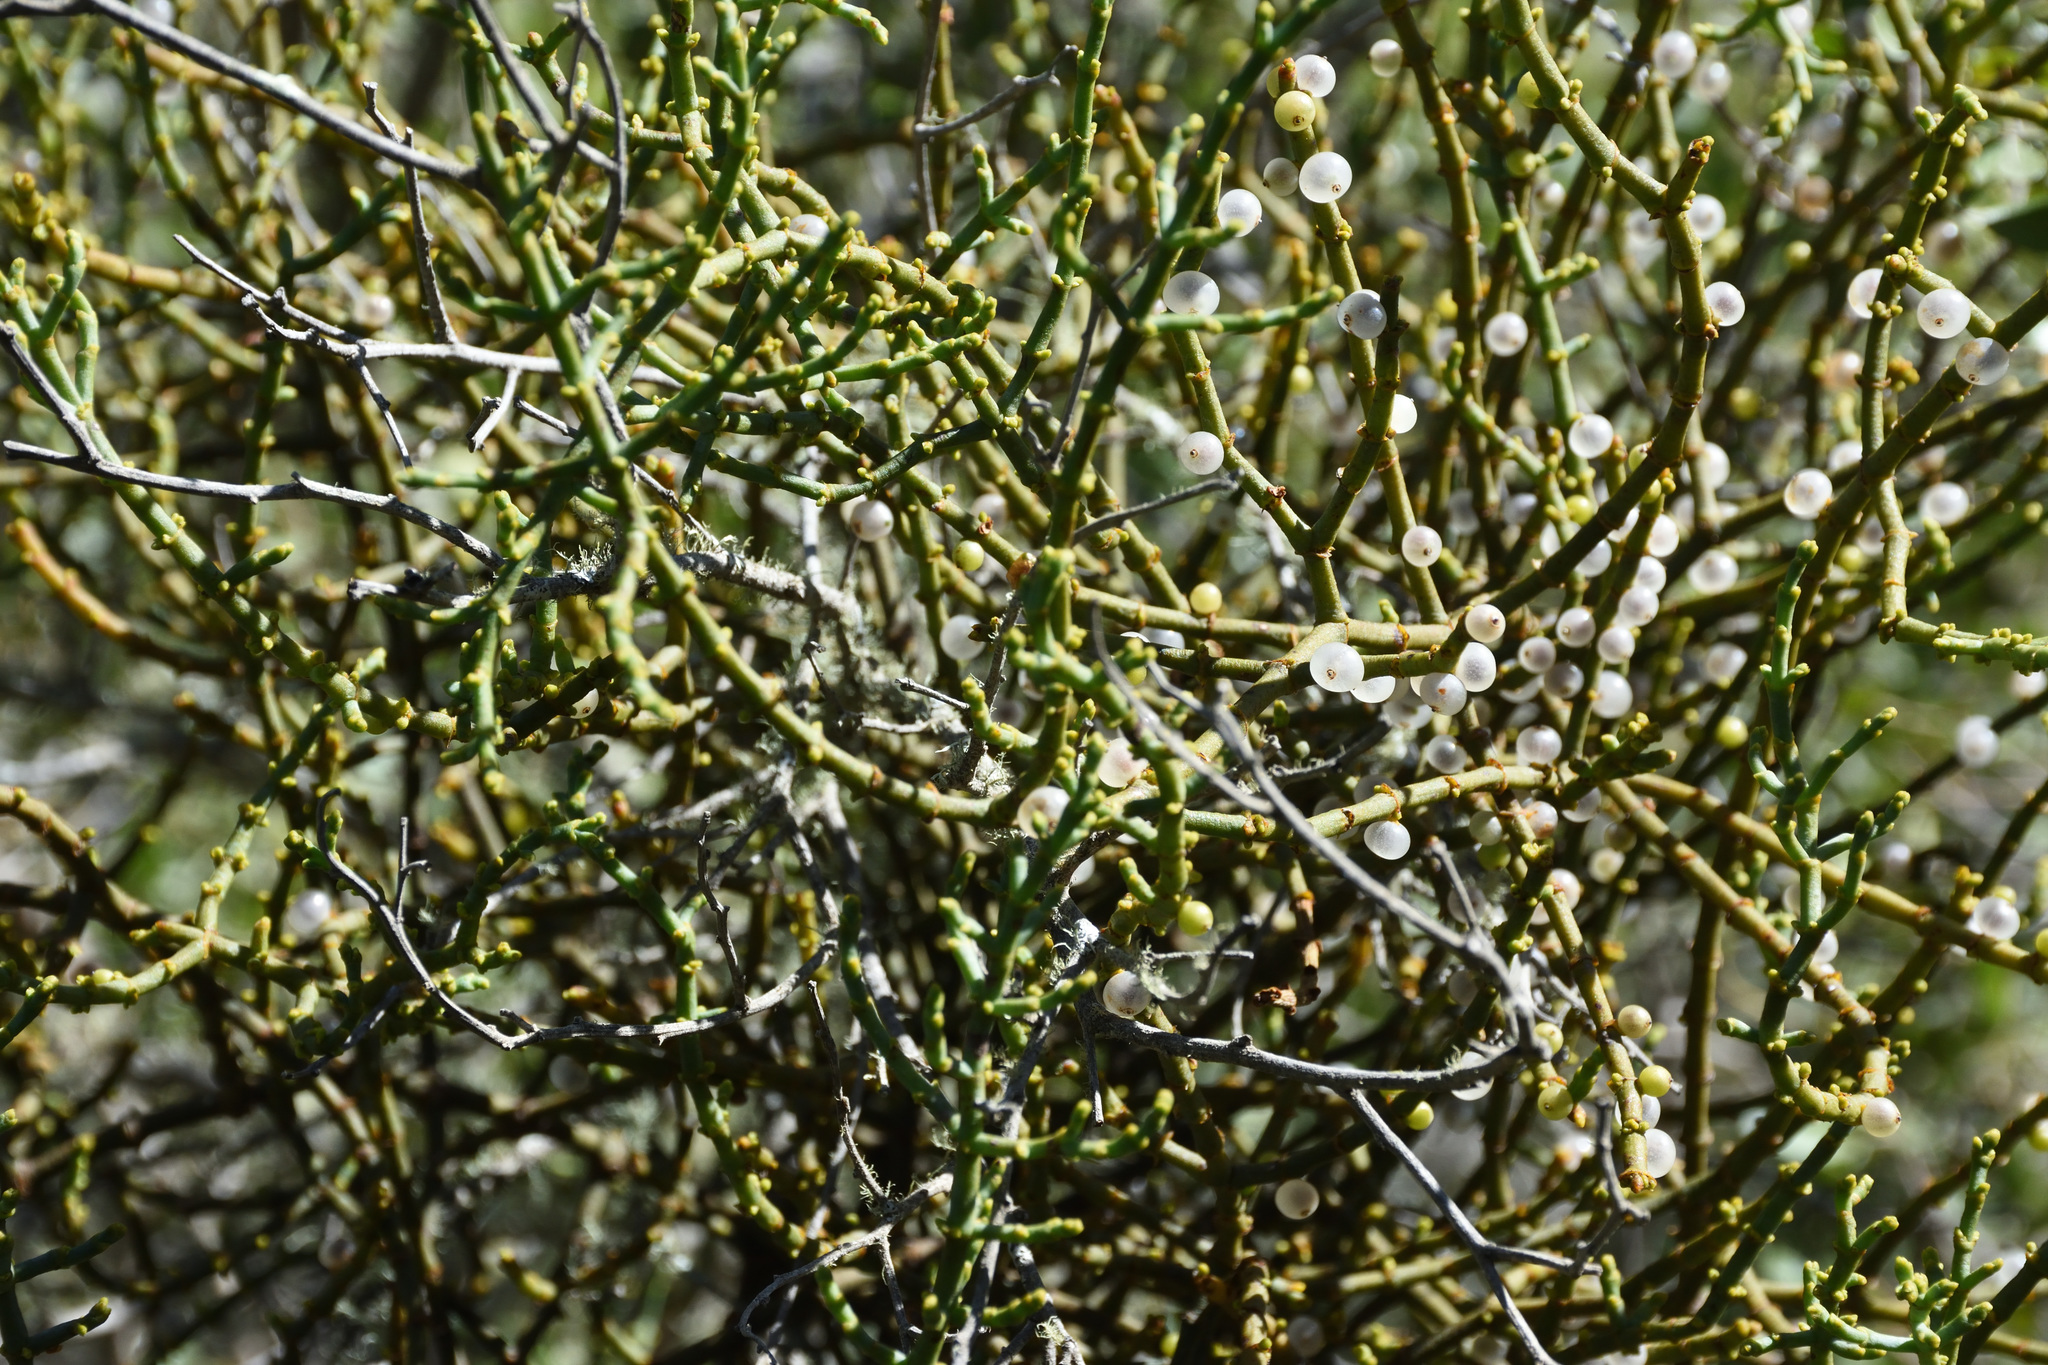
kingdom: Plantae
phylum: Tracheophyta
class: Magnoliopsida
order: Santalales
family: Viscaceae
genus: Viscum
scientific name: Viscum capense
